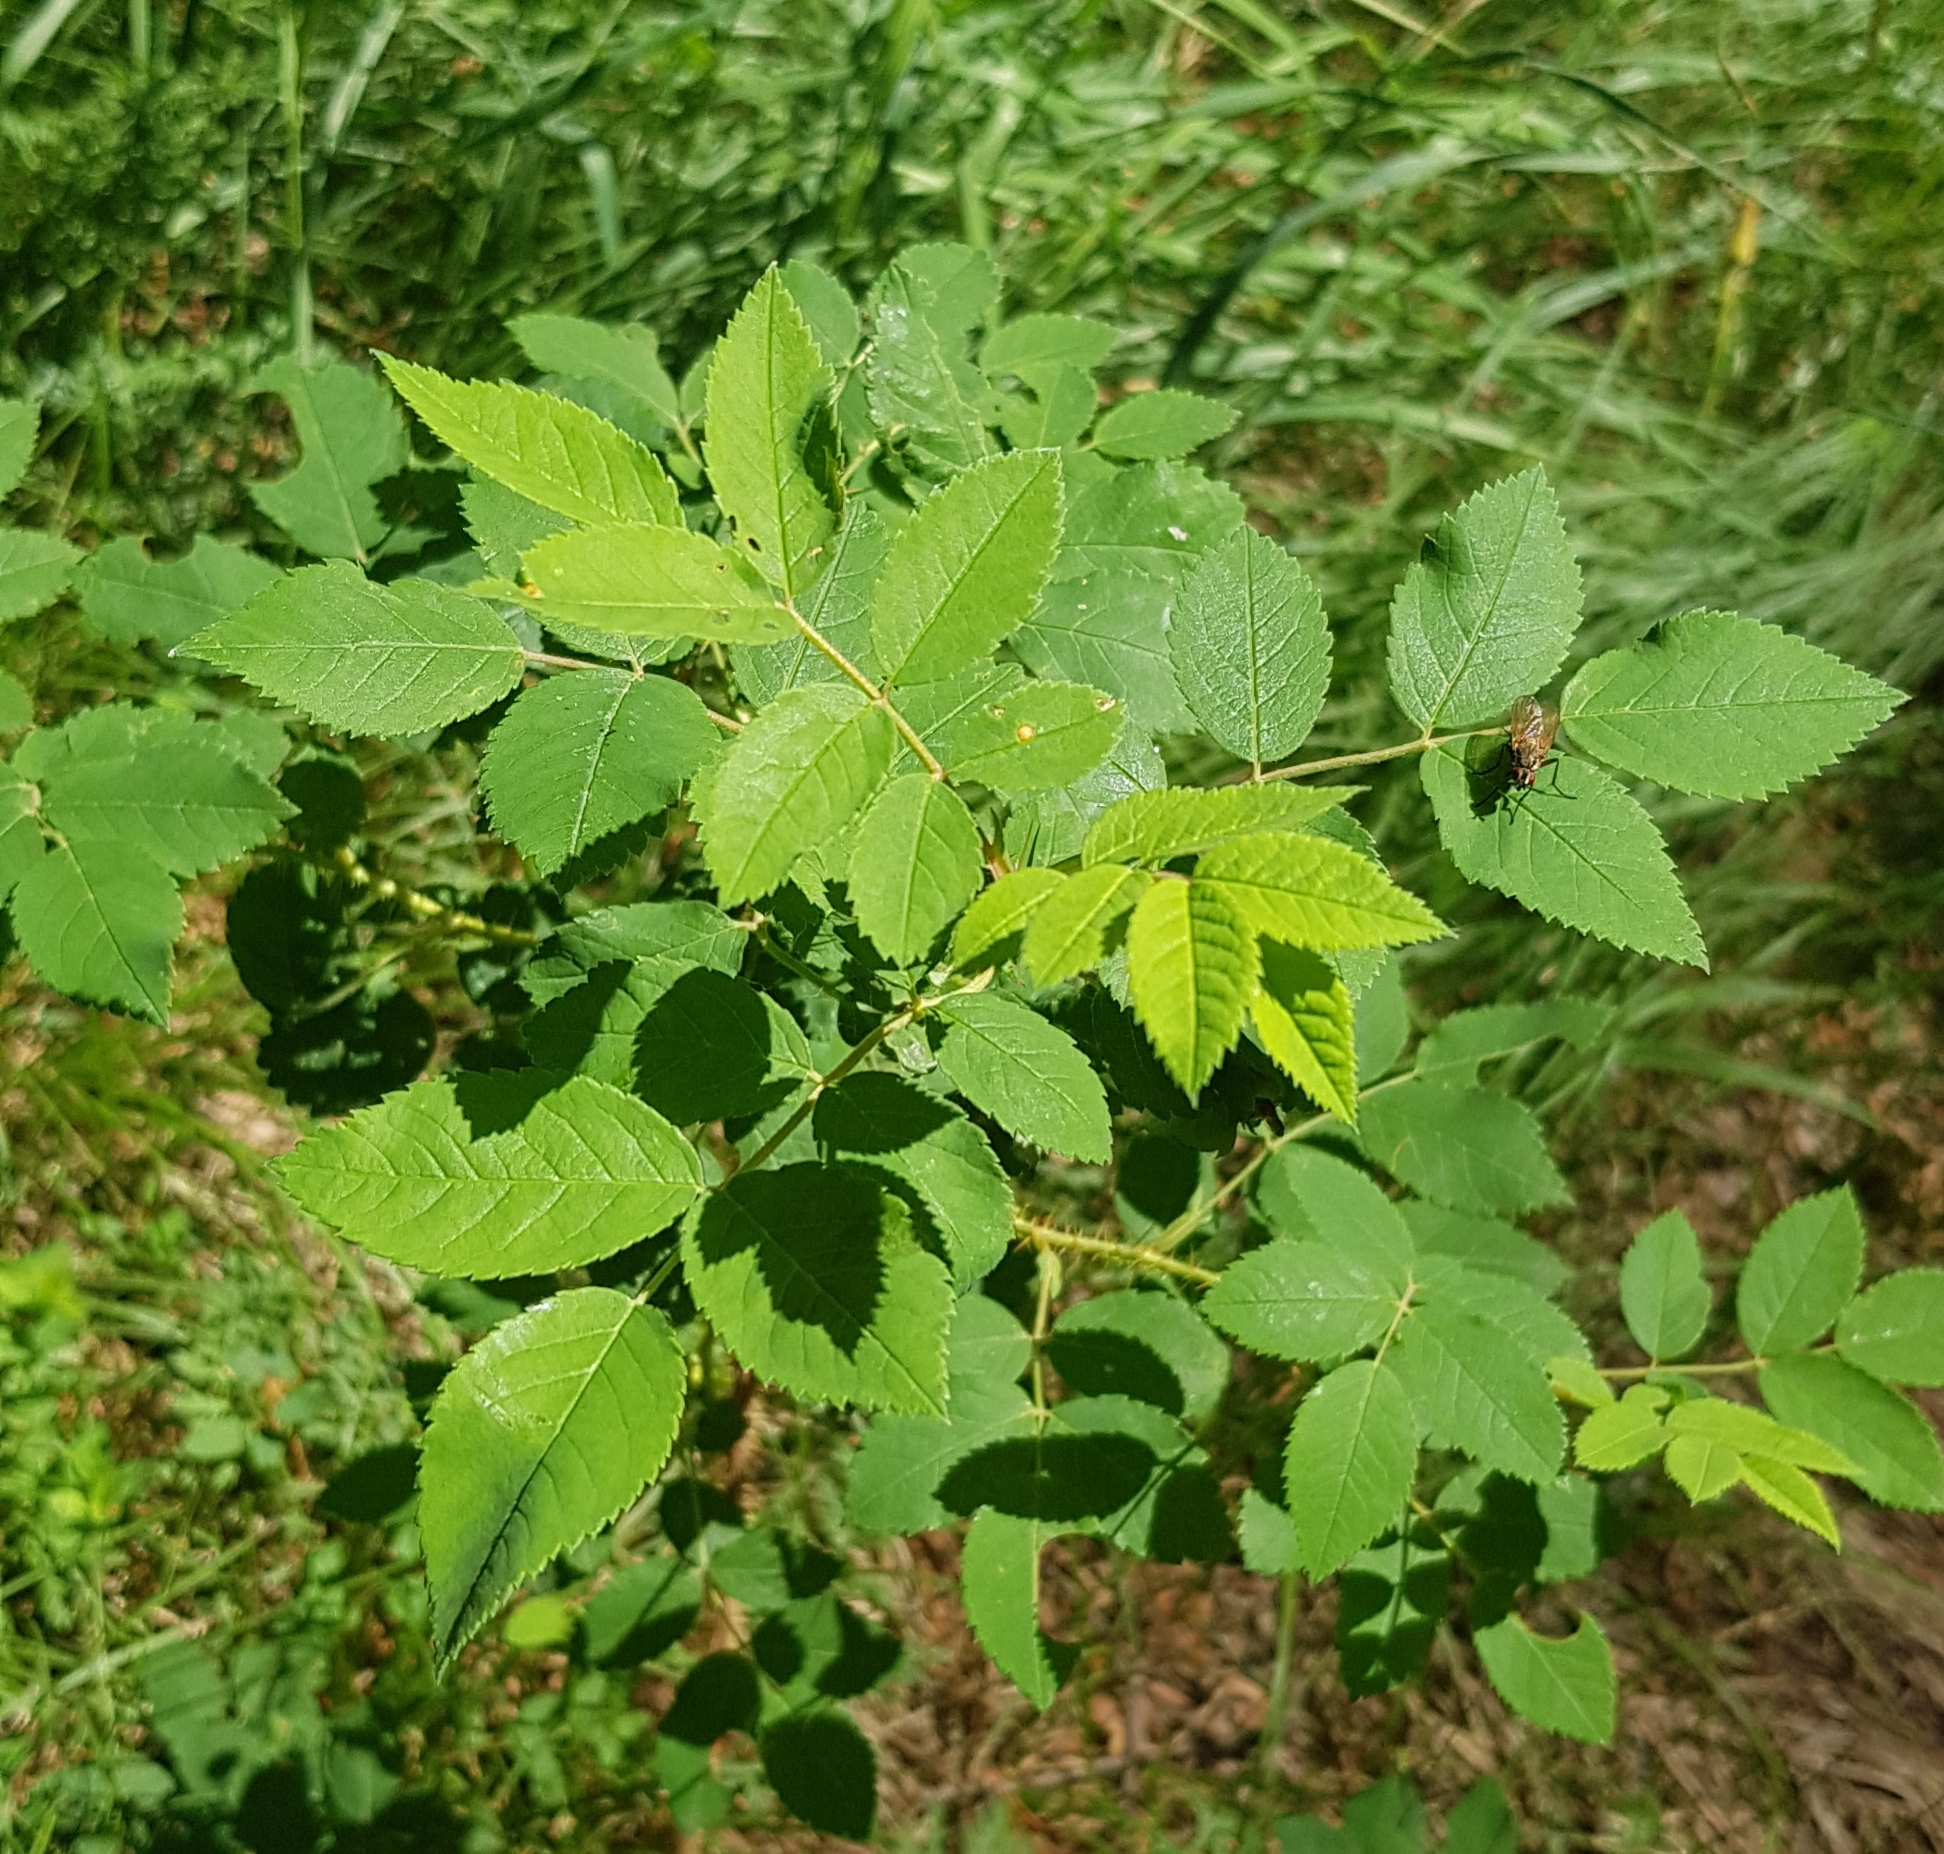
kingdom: Plantae
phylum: Tracheophyta
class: Magnoliopsida
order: Rosales
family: Rosaceae
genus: Rosa
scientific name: Rosa acicularis
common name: Prickly rose
